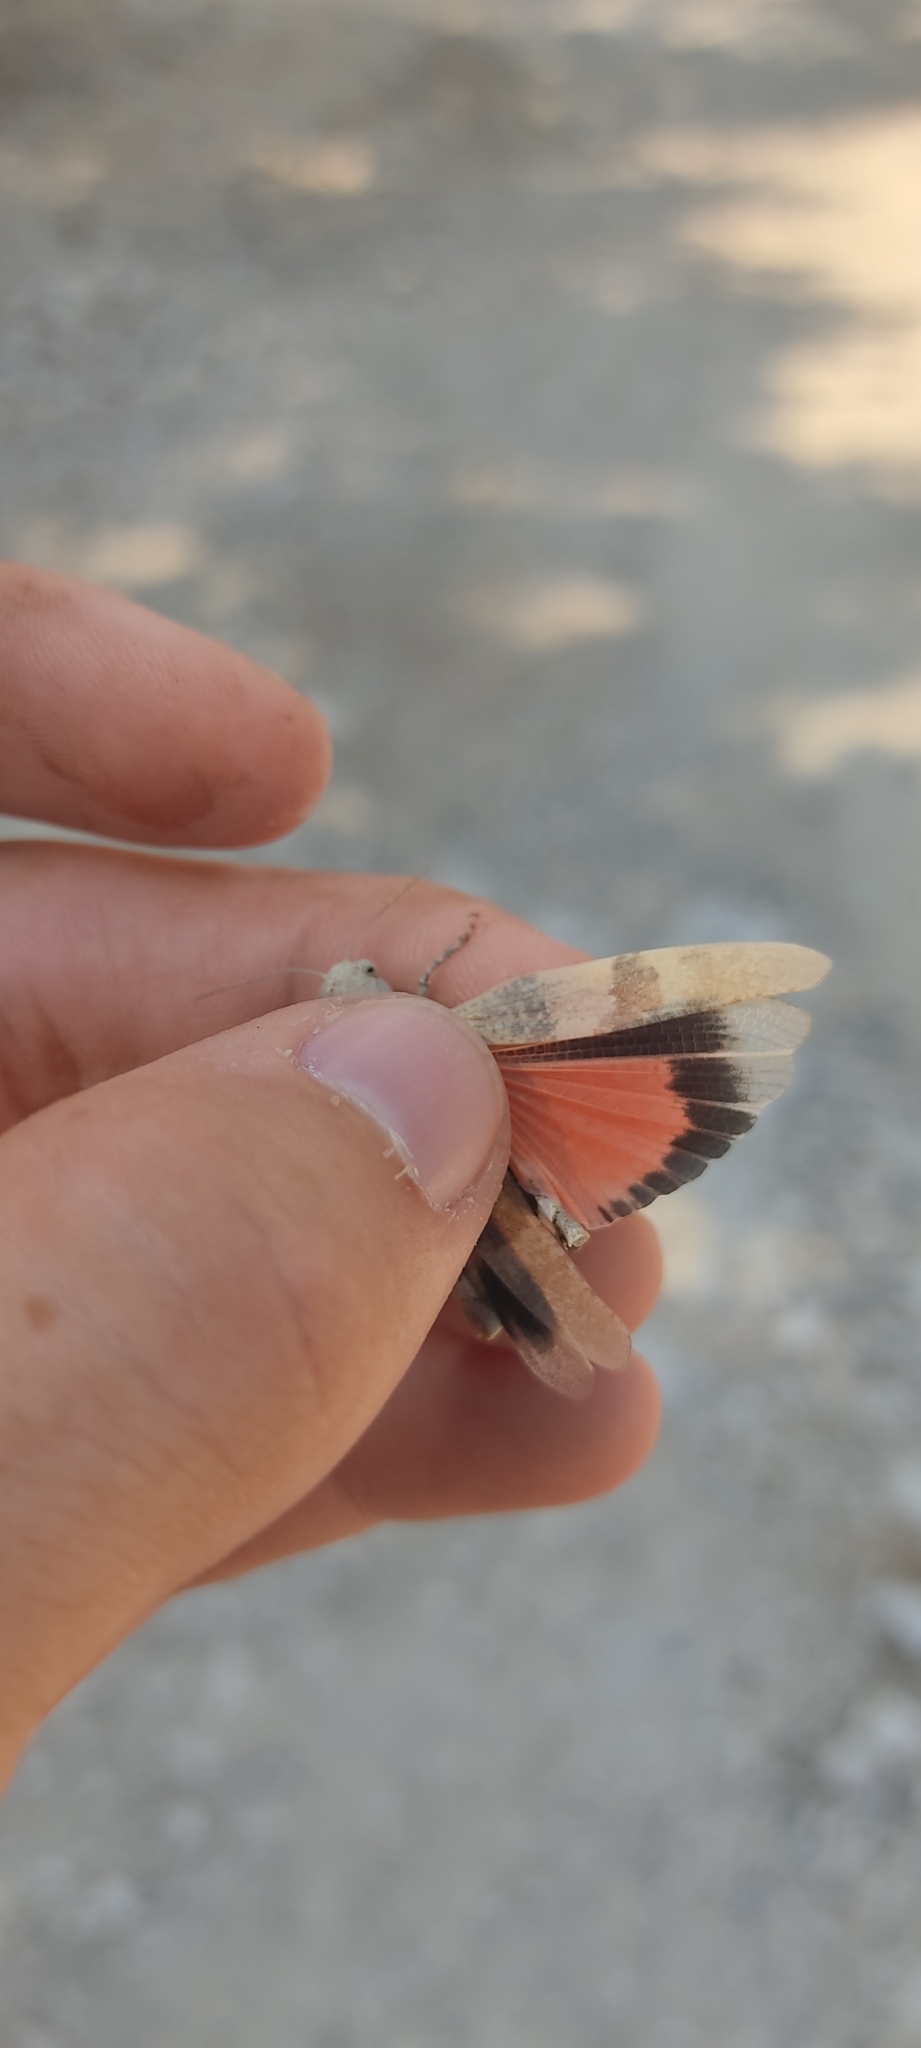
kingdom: Animalia
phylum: Arthropoda
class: Insecta
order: Orthoptera
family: Acrididae
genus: Oedipoda
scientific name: Oedipoda germanica
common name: Red band-winged grasshopper
